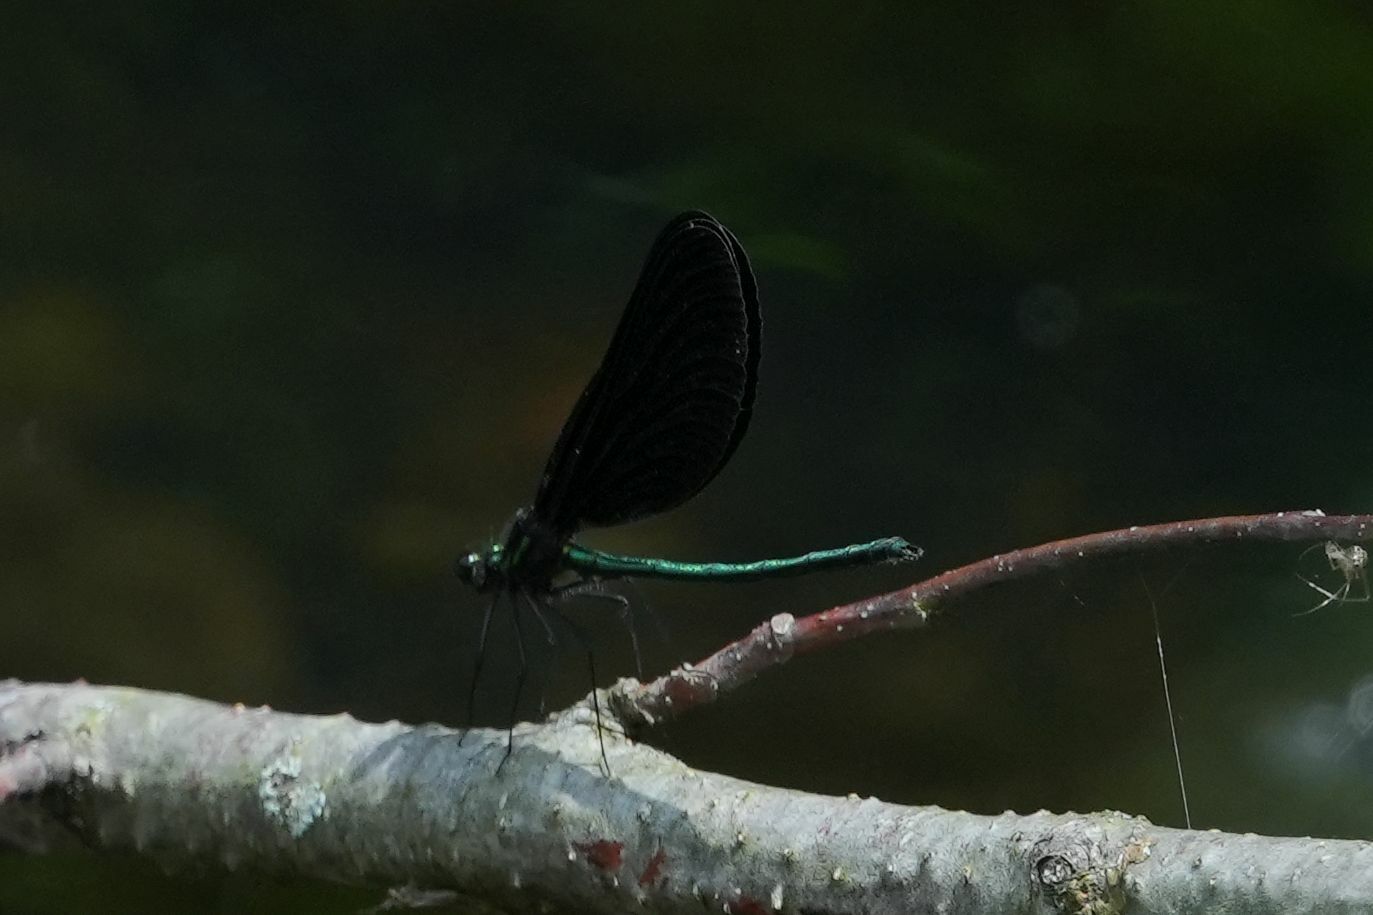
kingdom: Animalia
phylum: Arthropoda
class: Insecta
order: Odonata
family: Calopterygidae
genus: Calopteryx
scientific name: Calopteryx maculata
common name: Ebony jewelwing
